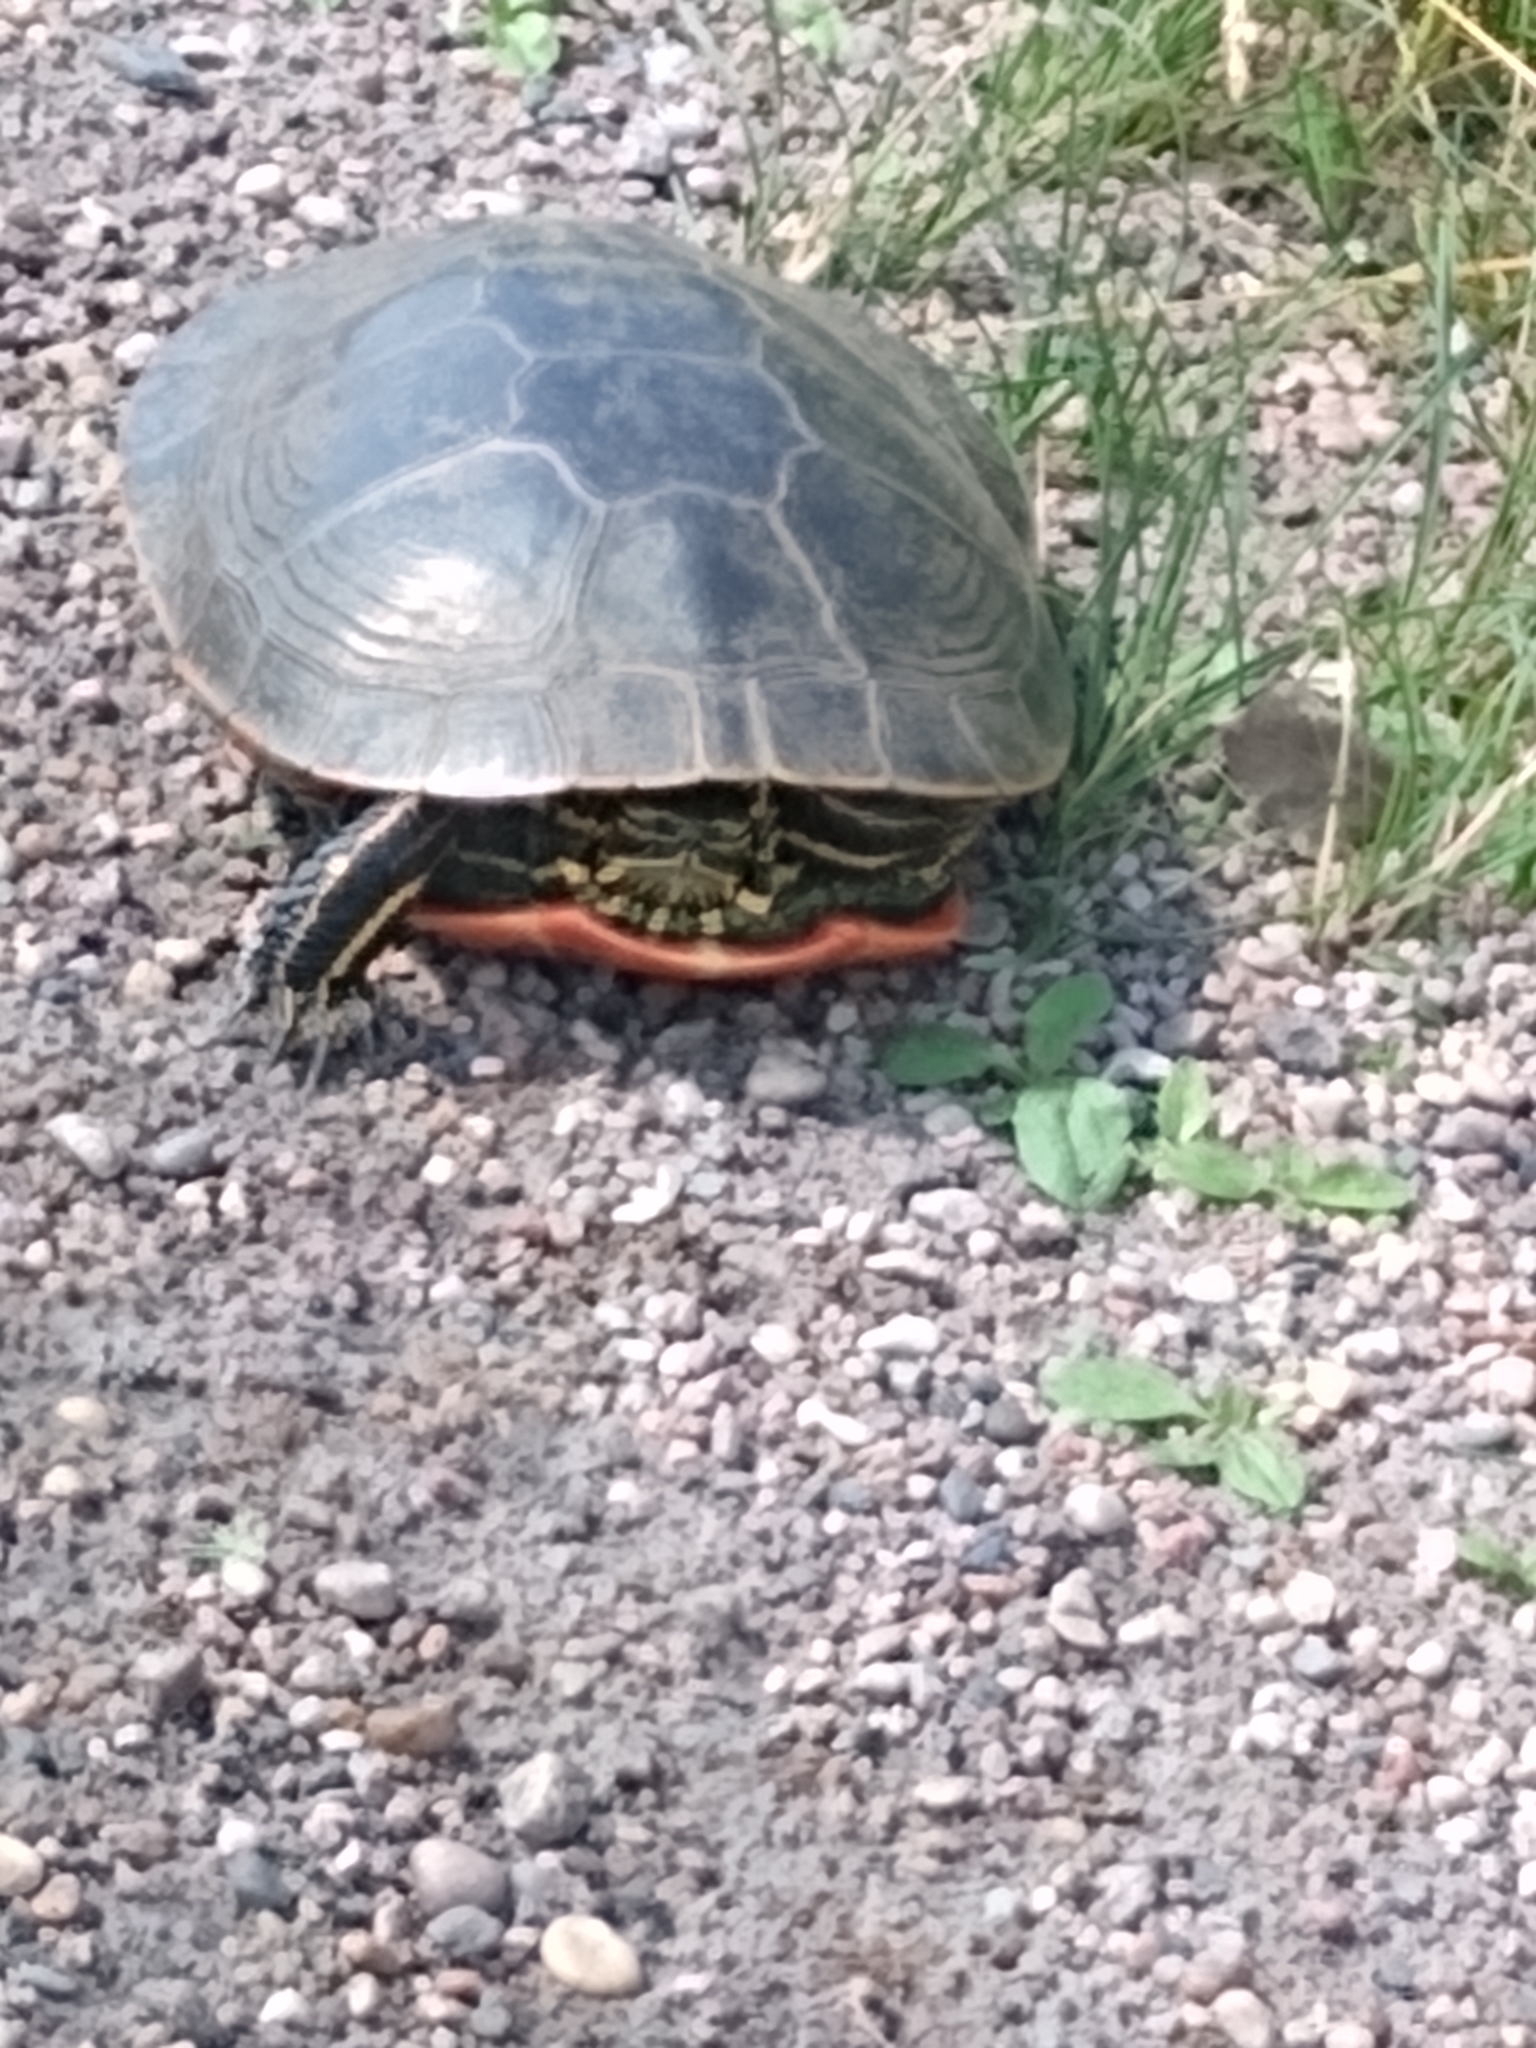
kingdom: Animalia
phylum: Chordata
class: Testudines
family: Emydidae
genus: Chrysemys
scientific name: Chrysemys picta
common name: Painted turtle
